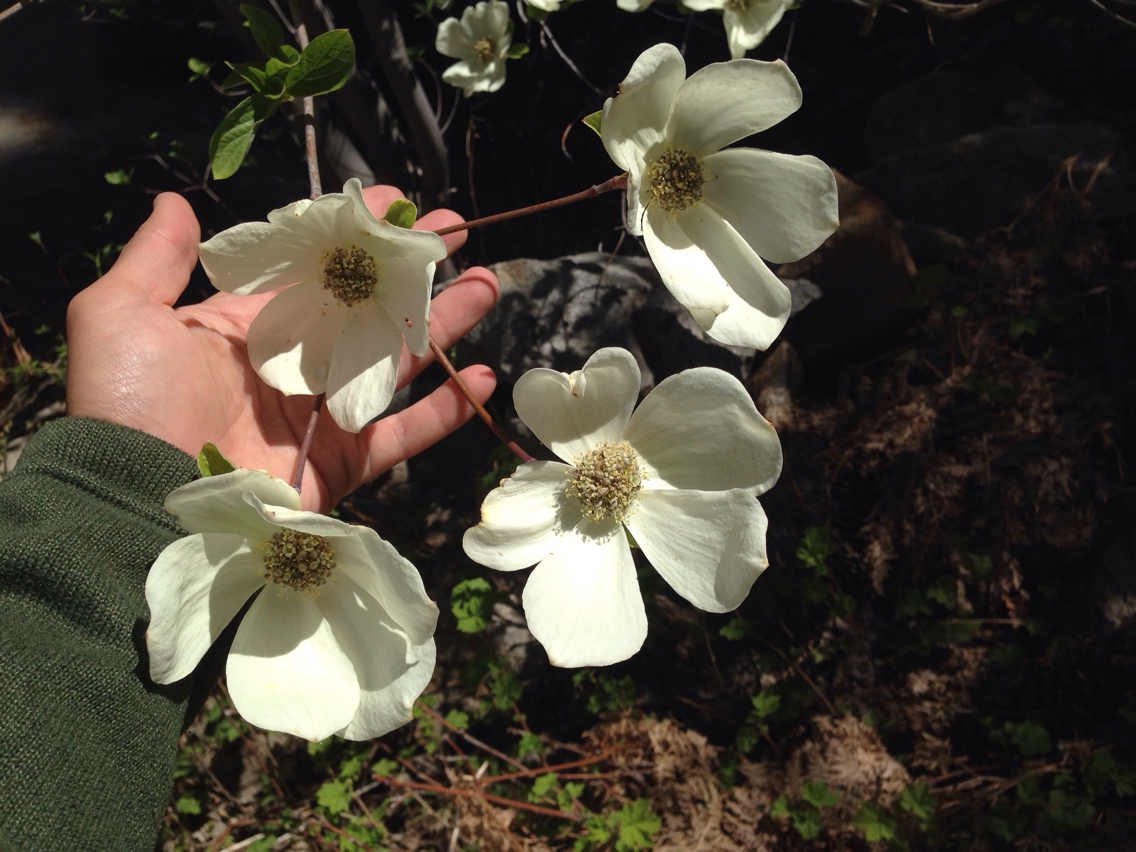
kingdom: Plantae
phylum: Tracheophyta
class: Magnoliopsida
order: Cornales
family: Cornaceae
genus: Cornus
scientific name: Cornus nuttallii
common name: Pacific dogwood
